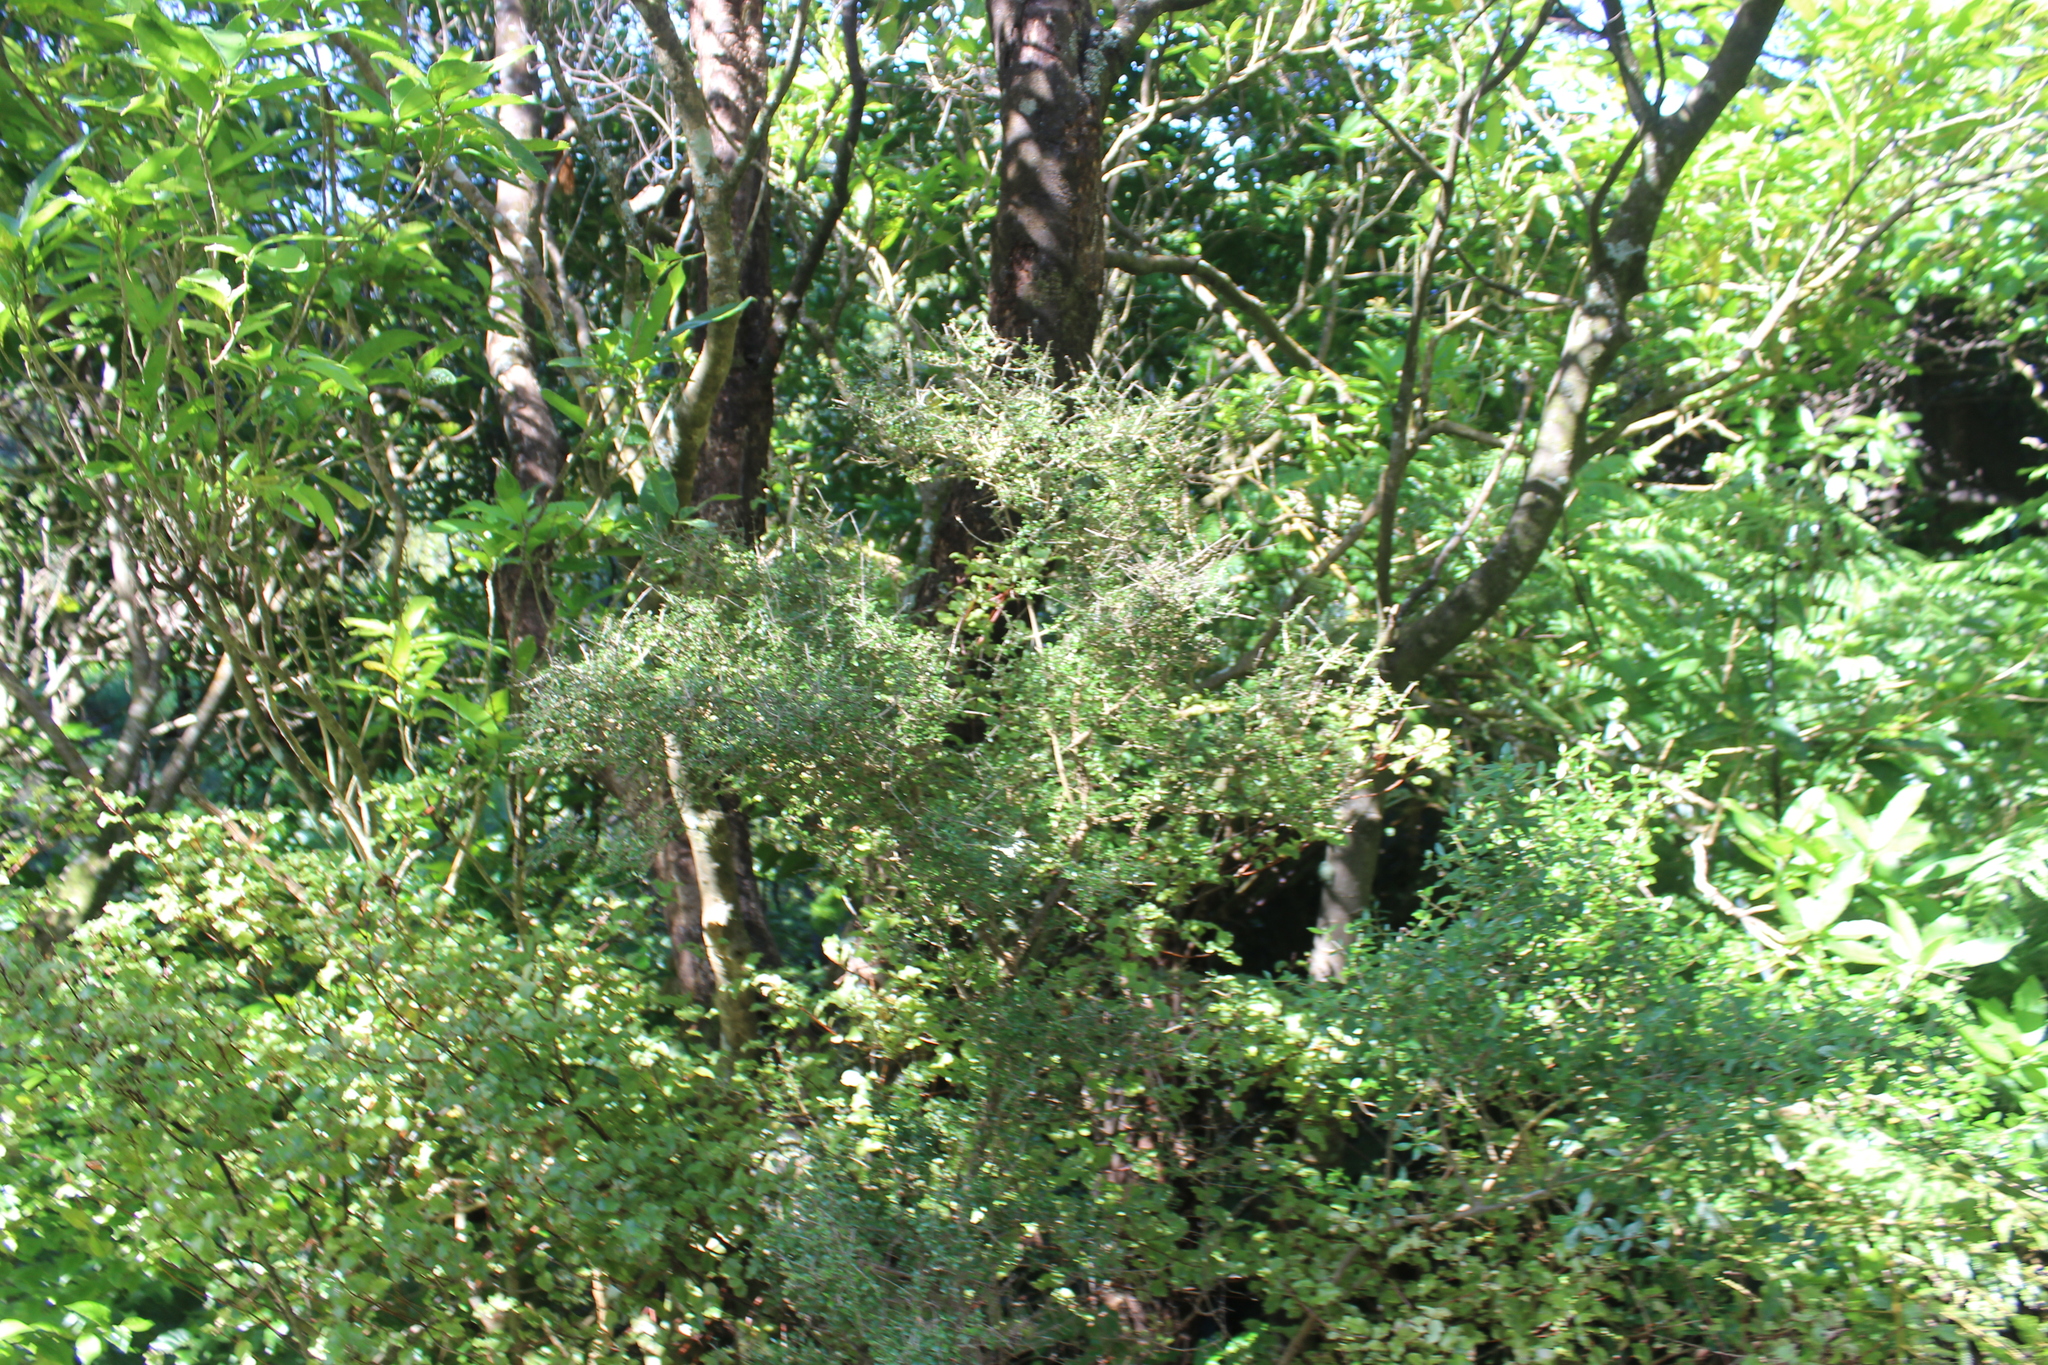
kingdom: Plantae
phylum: Tracheophyta
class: Magnoliopsida
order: Gentianales
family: Rubiaceae
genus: Coprosma
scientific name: Coprosma rhamnoides
